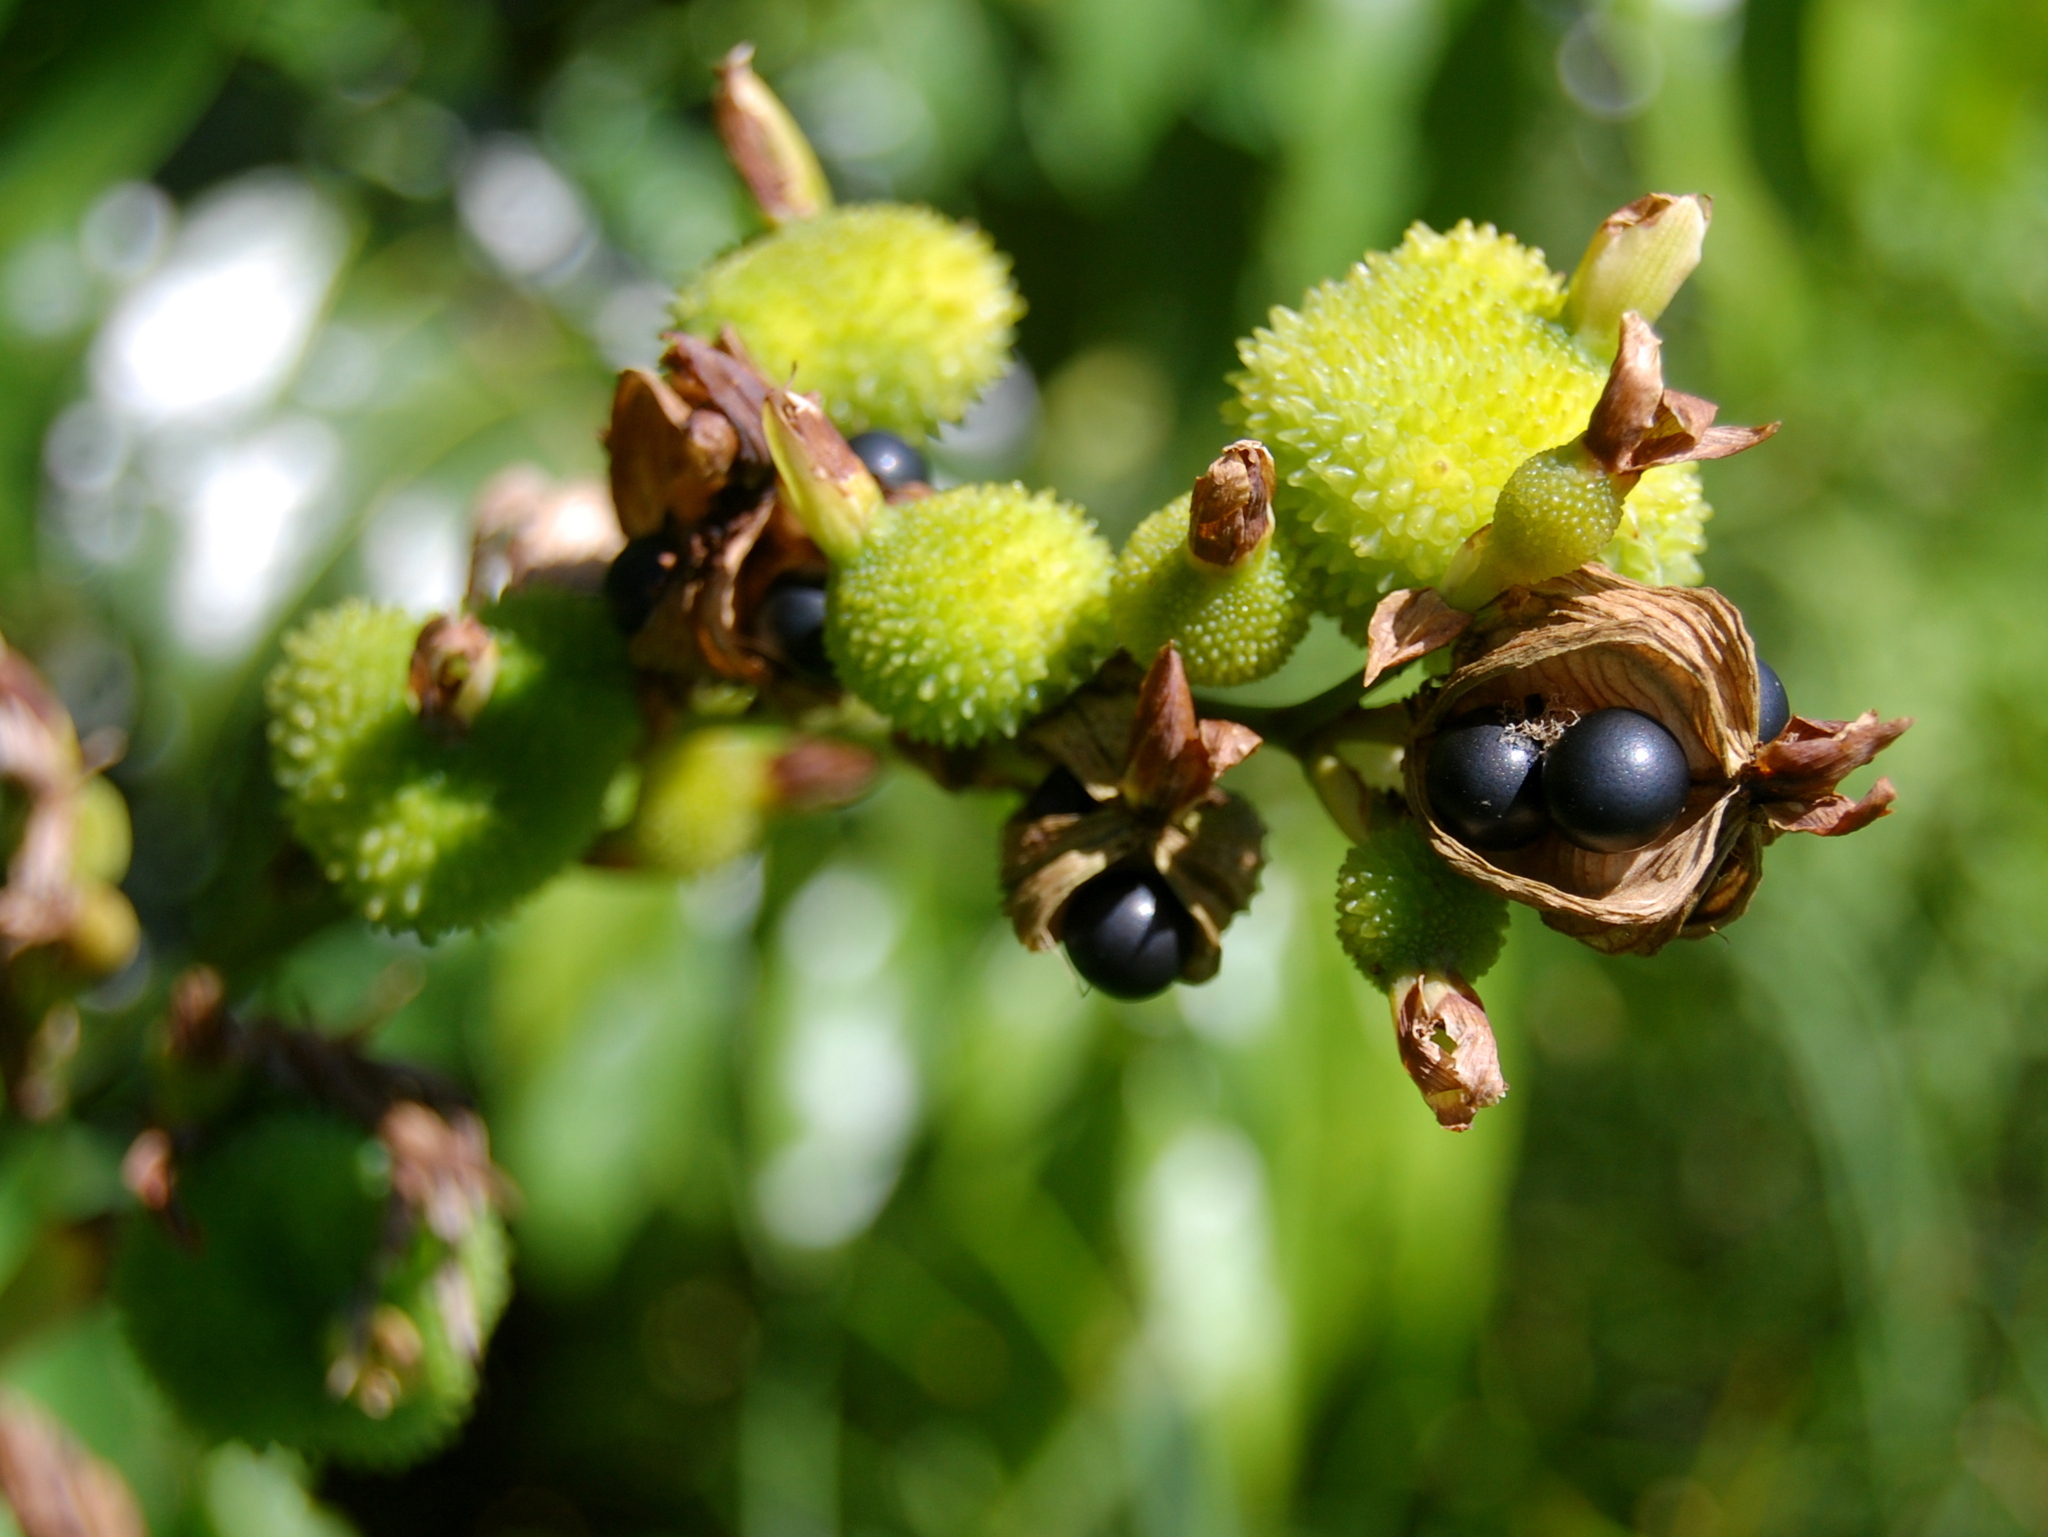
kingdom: Plantae
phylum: Tracheophyta
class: Liliopsida
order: Zingiberales
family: Cannaceae
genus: Canna
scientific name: Canna indica
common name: Indian shot
